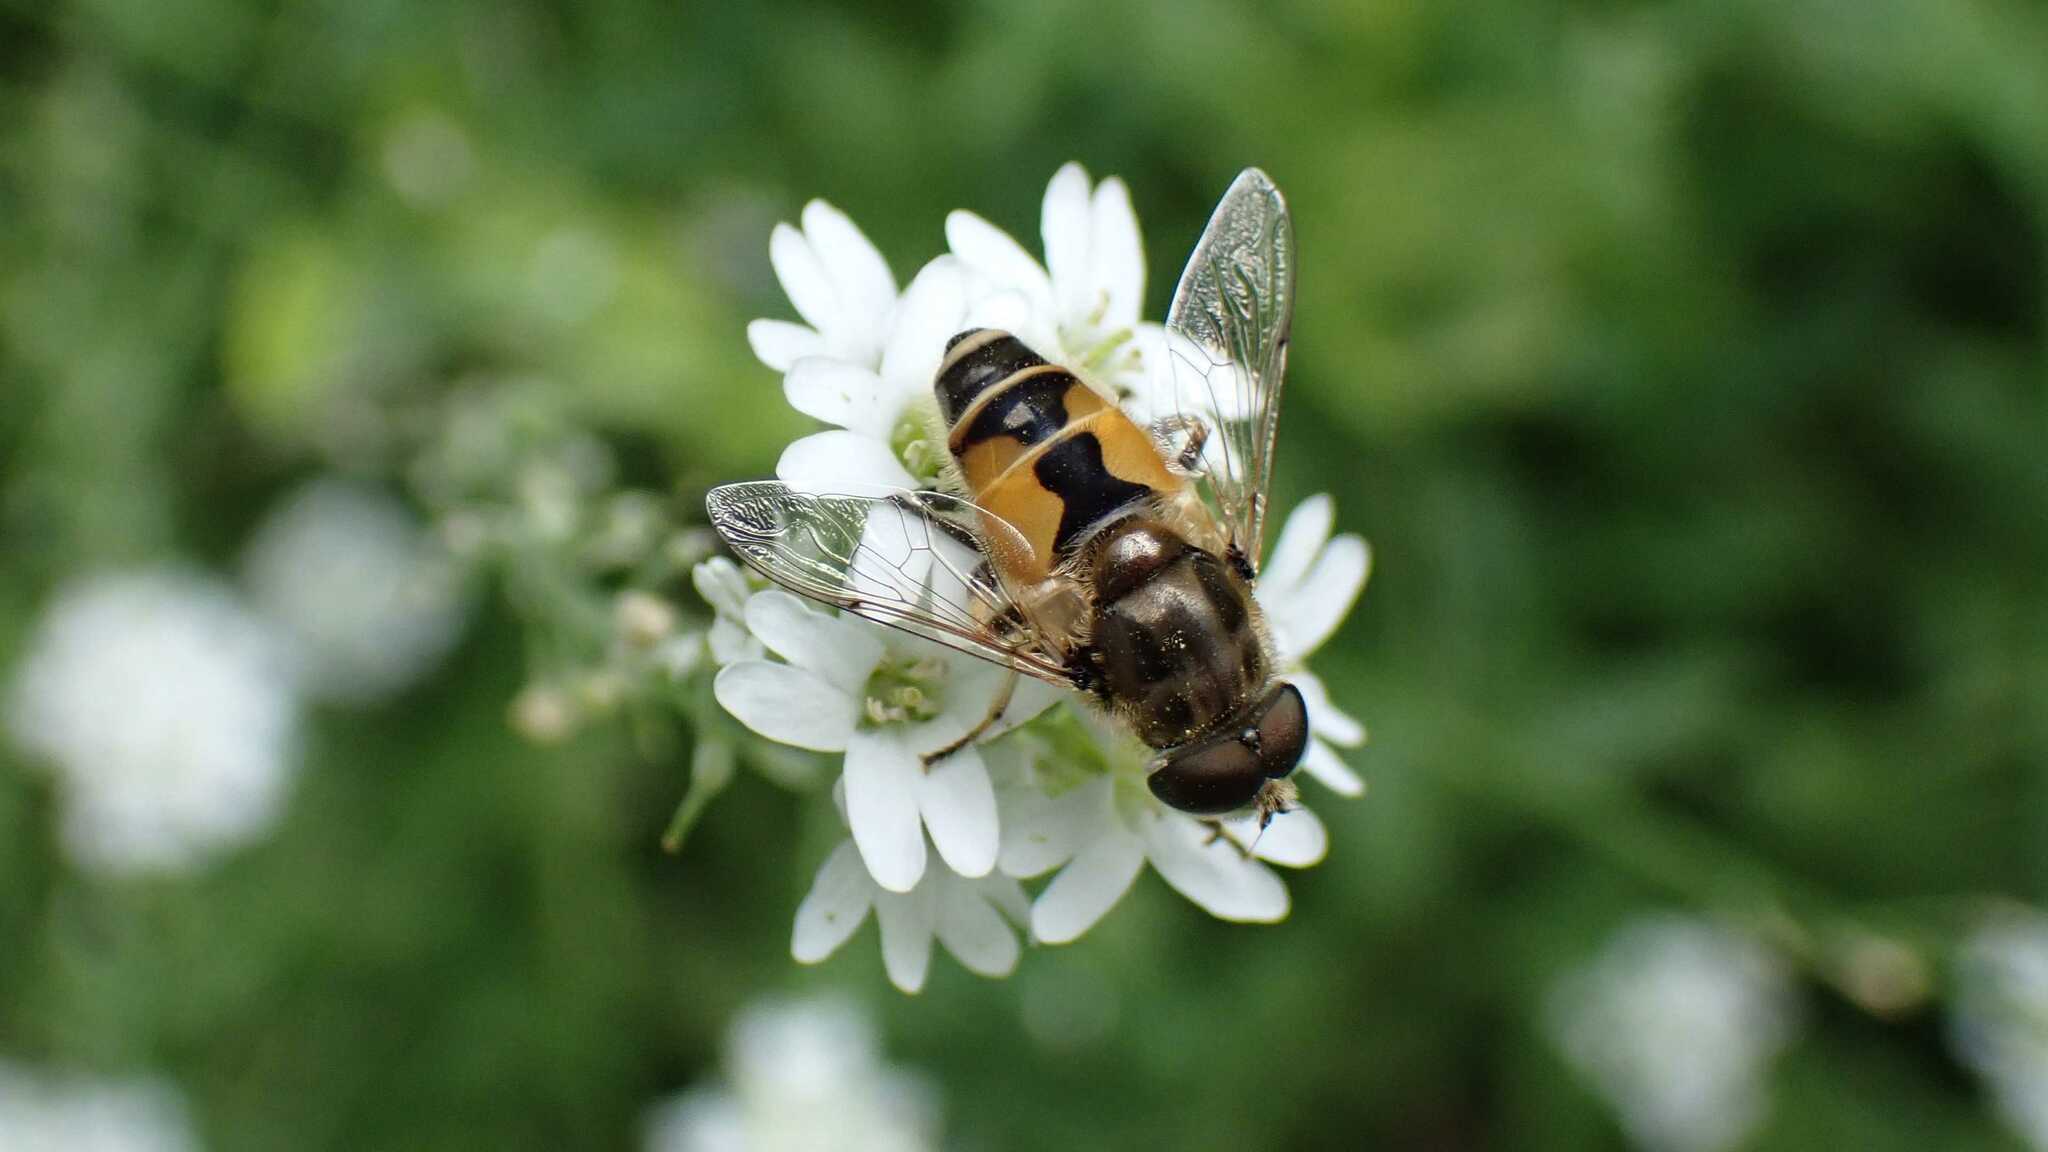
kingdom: Animalia
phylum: Arthropoda
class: Insecta
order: Diptera
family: Syrphidae
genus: Eristalis
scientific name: Eristalis arbustorum
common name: Hover fly
